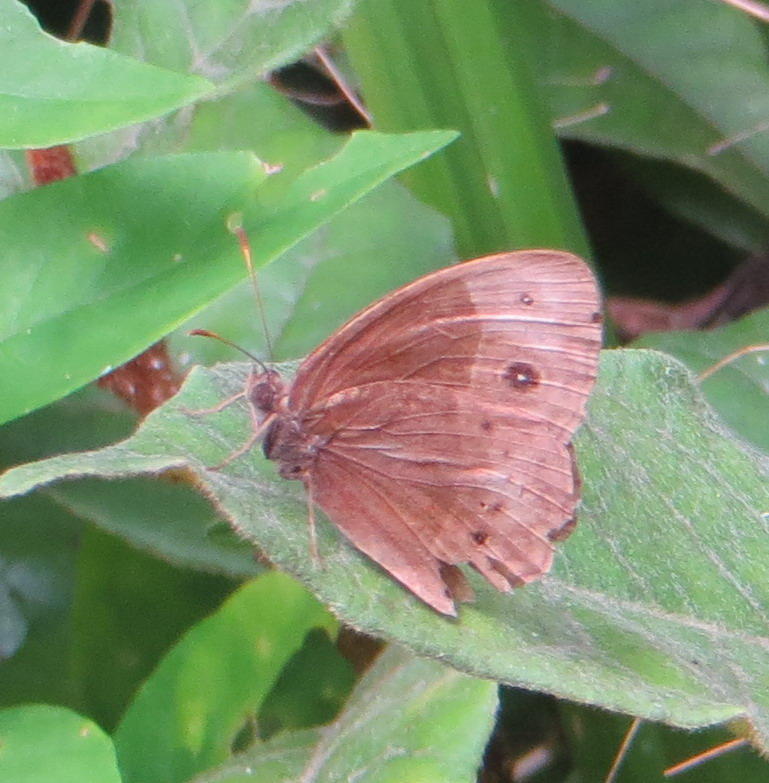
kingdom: Animalia
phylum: Arthropoda
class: Insecta
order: Lepidoptera
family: Nymphalidae
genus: Mycalesis
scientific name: Mycalesis rhacotis
